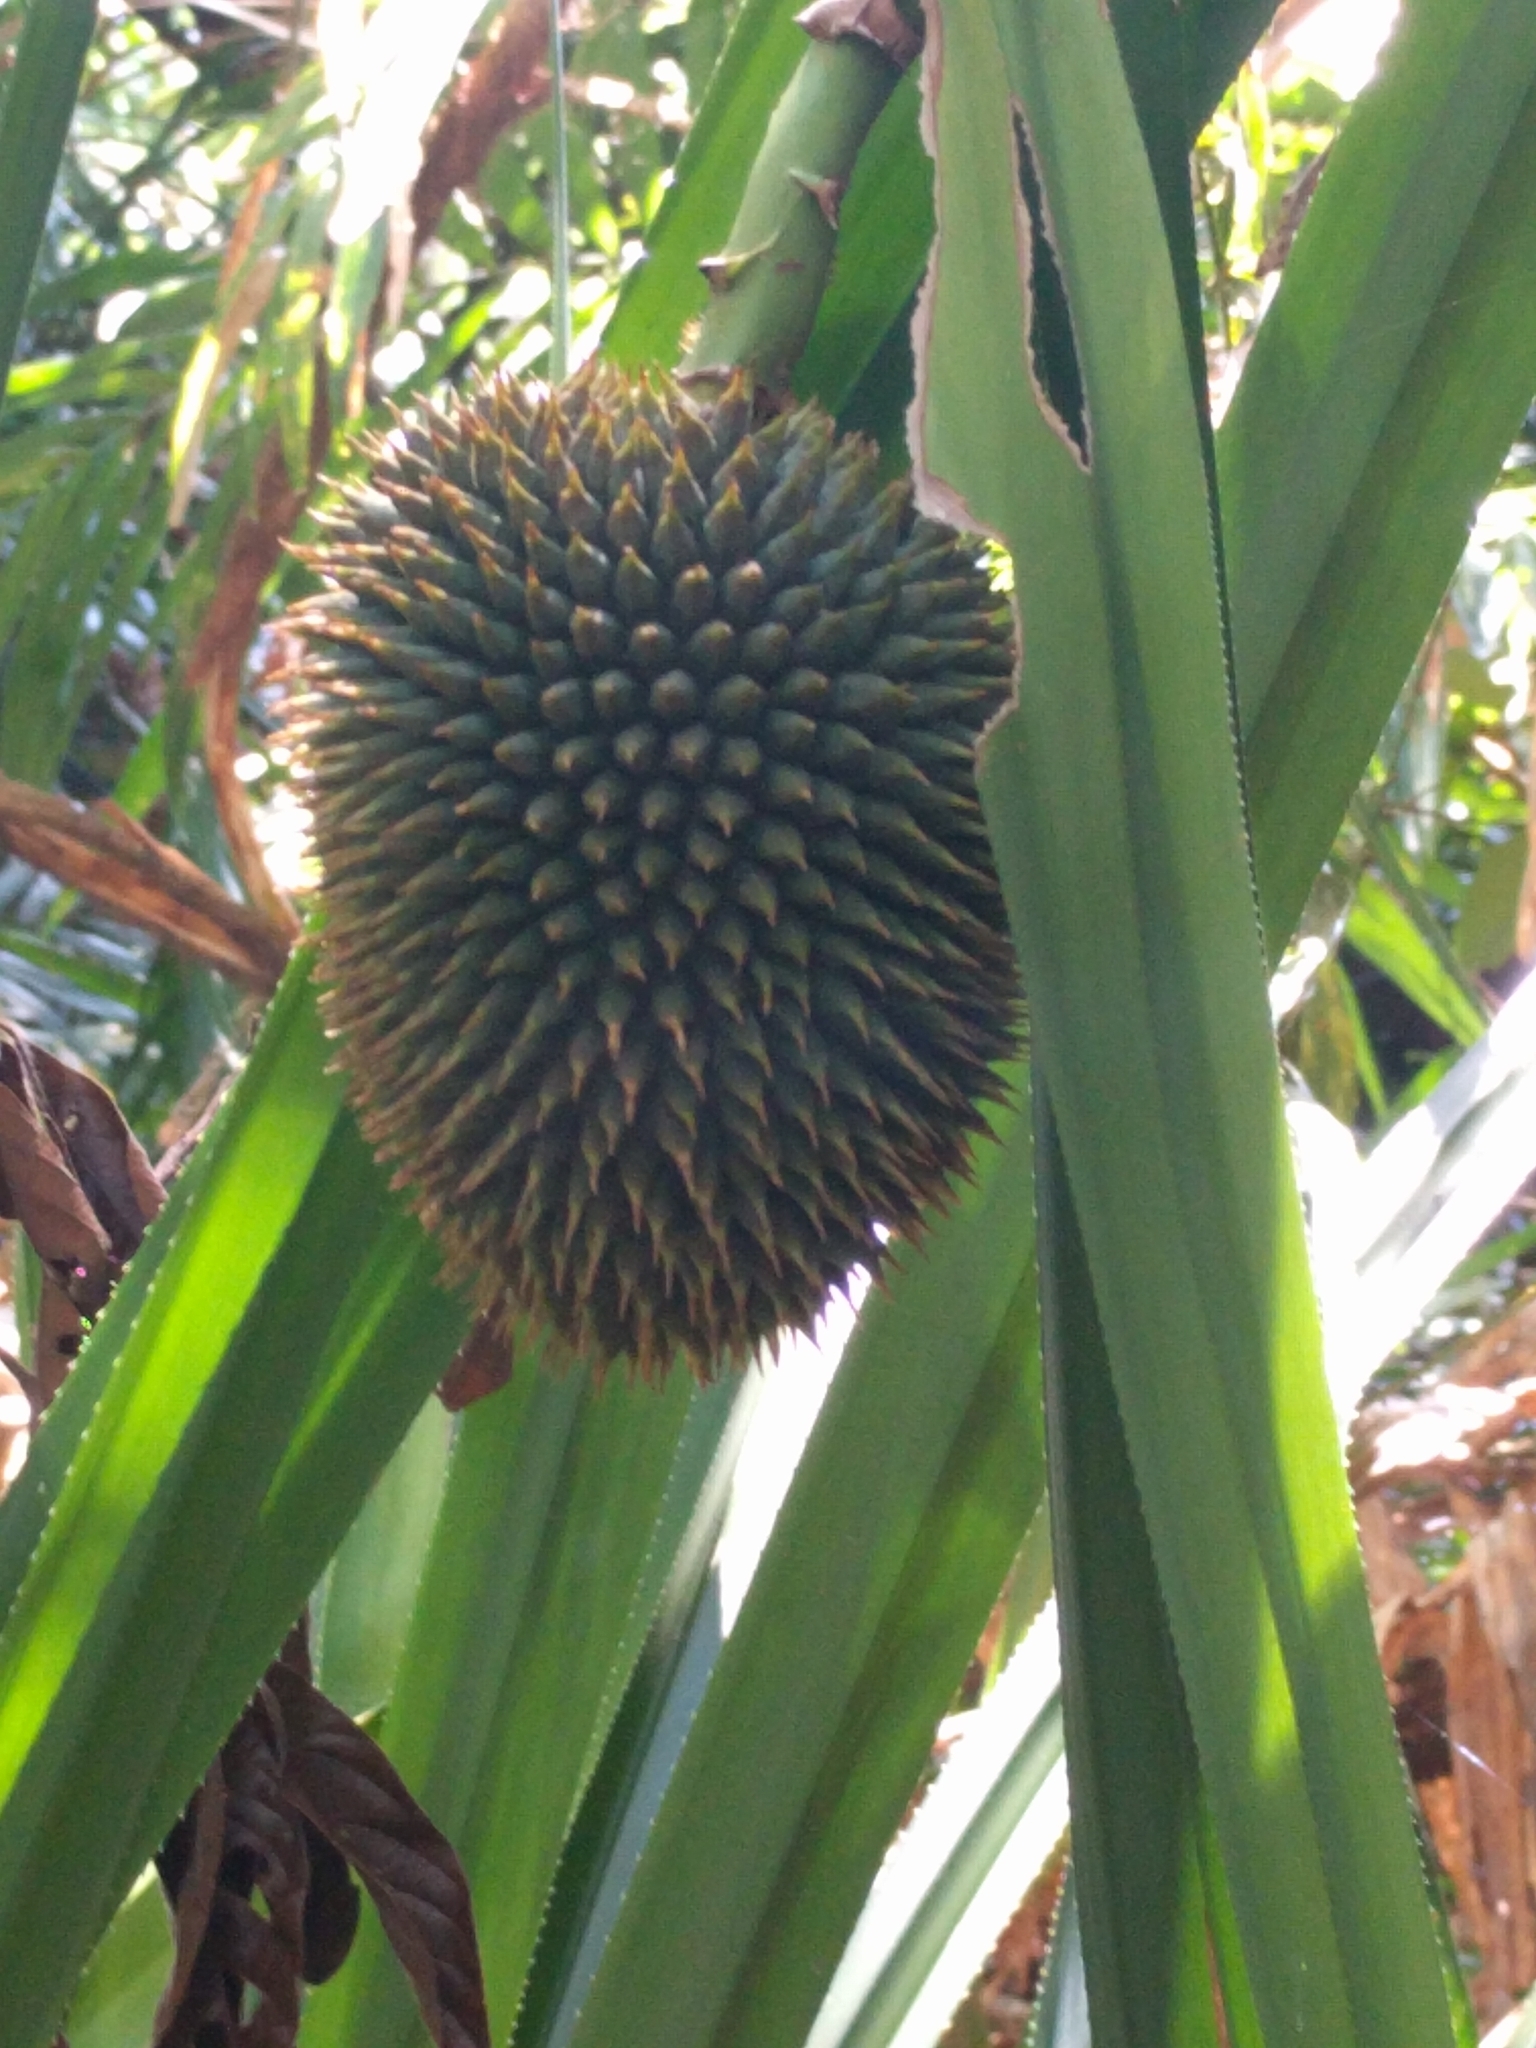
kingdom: Plantae
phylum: Tracheophyta
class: Liliopsida
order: Pandanales
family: Pandanaceae
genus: Benstonea
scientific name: Benstonea monticola
